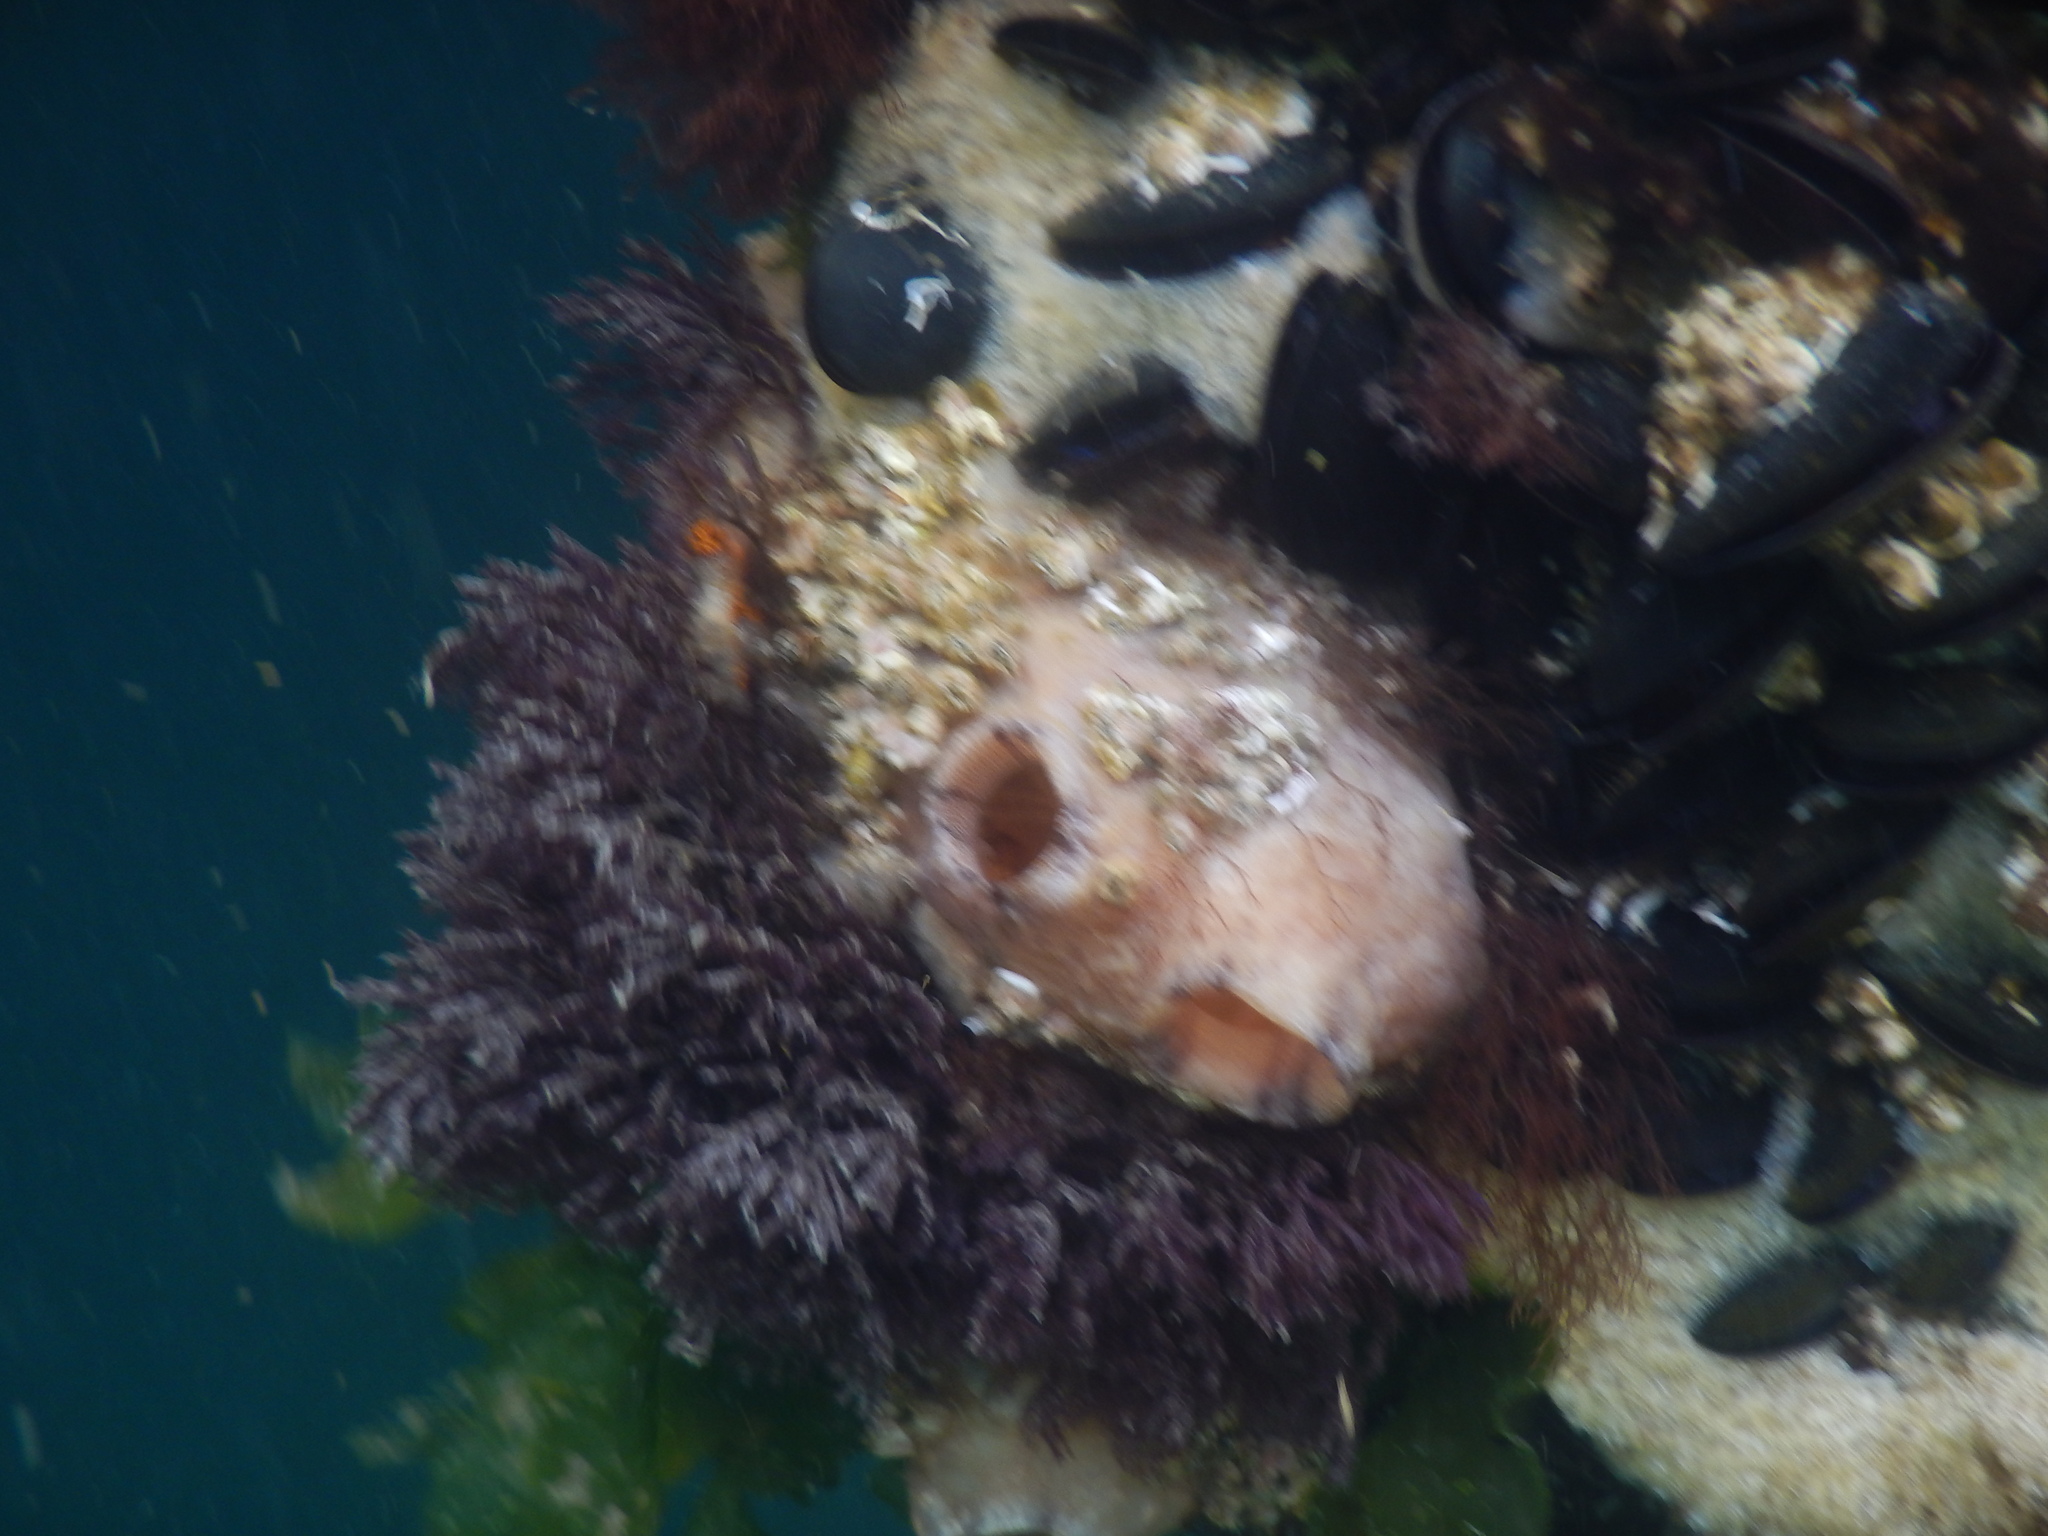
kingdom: Animalia
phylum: Chordata
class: Ascidiacea
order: Stolidobranchia
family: Styelidae
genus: Styela
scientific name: Styela plicata
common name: Pleated tunicate
